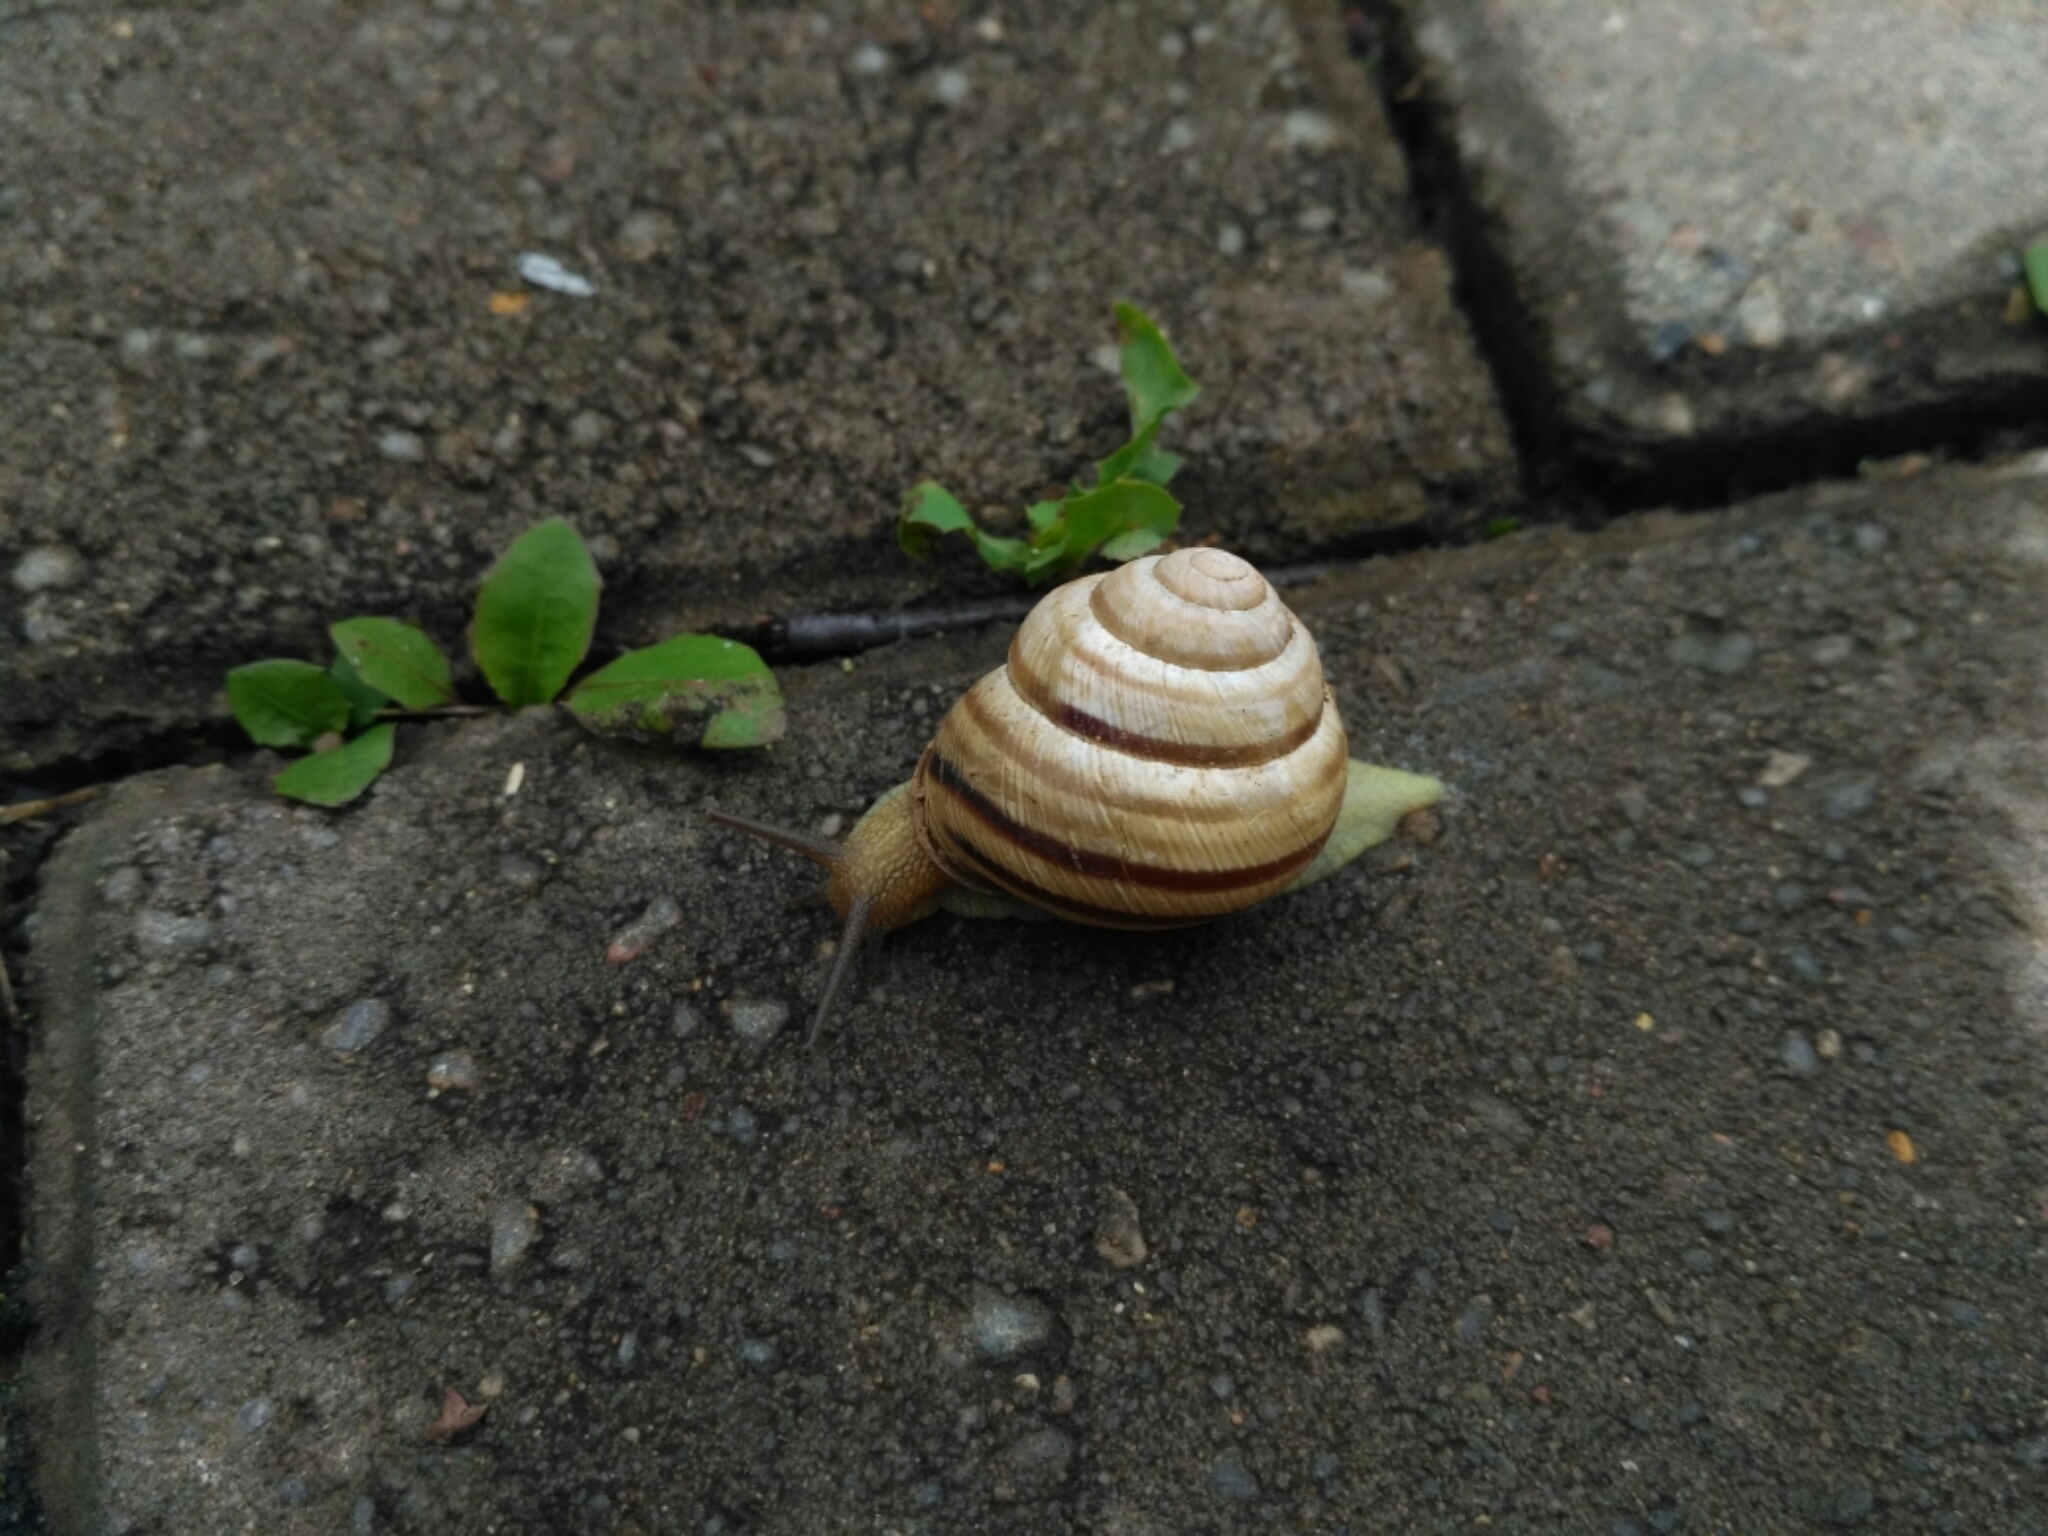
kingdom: Animalia
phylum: Mollusca
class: Gastropoda
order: Stylommatophora
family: Helicidae
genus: Caucasotachea
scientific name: Caucasotachea vindobonensis
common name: European helicid land snail
